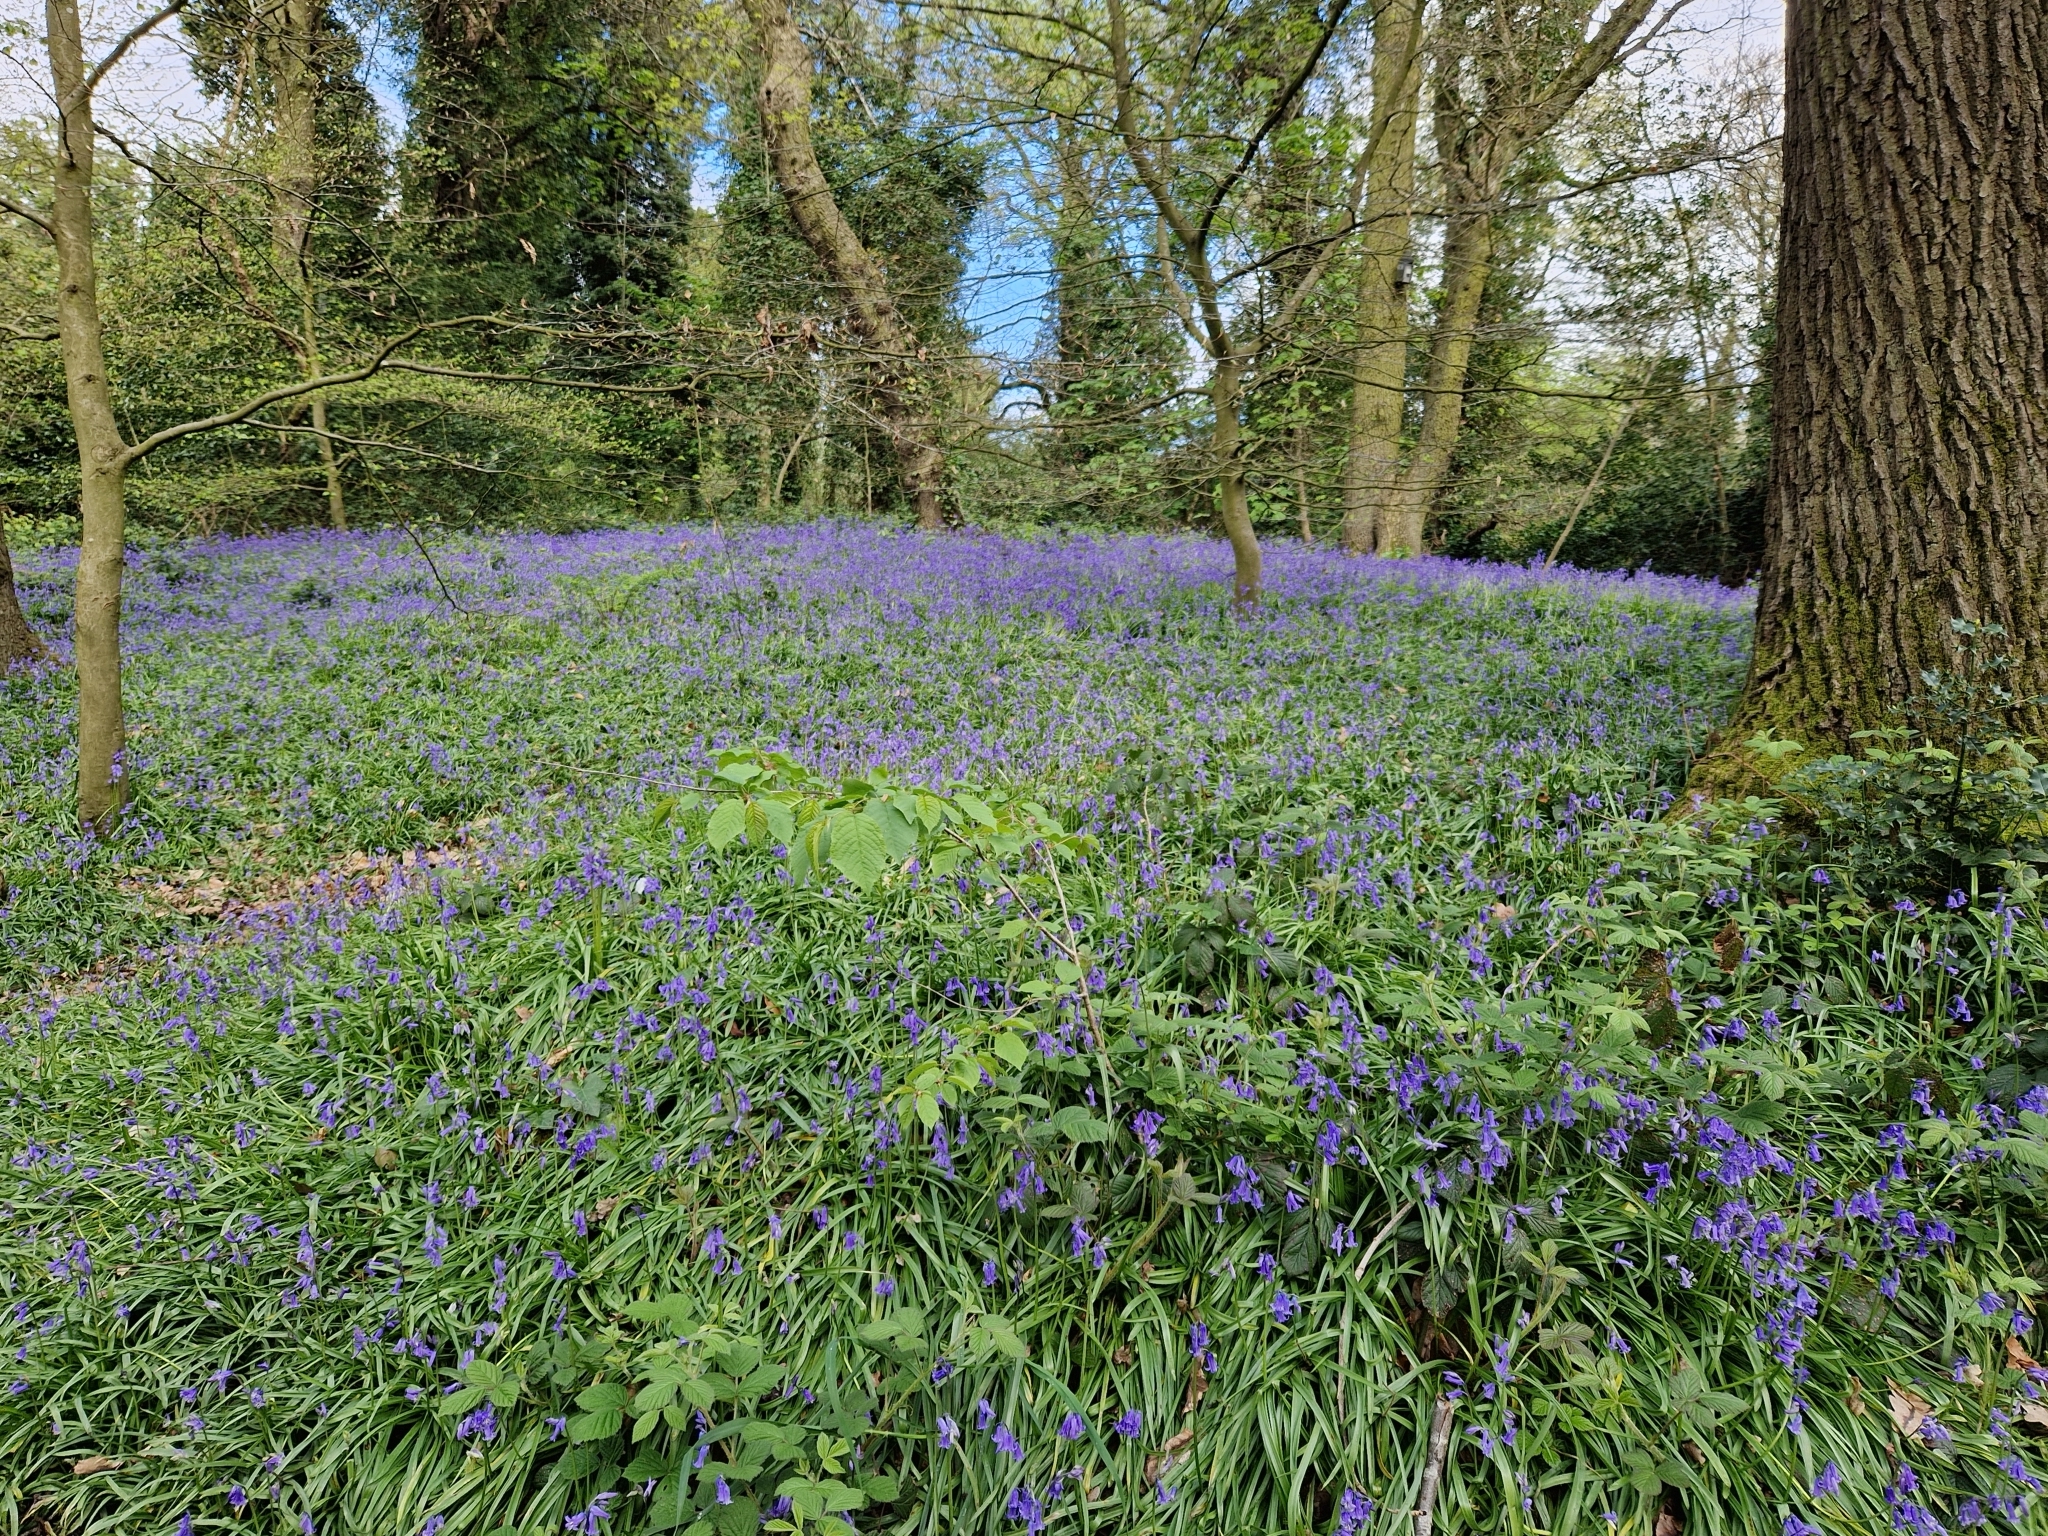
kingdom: Plantae
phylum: Tracheophyta
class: Liliopsida
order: Asparagales
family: Asparagaceae
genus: Hyacinthoides
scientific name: Hyacinthoides non-scripta
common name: Bluebell
